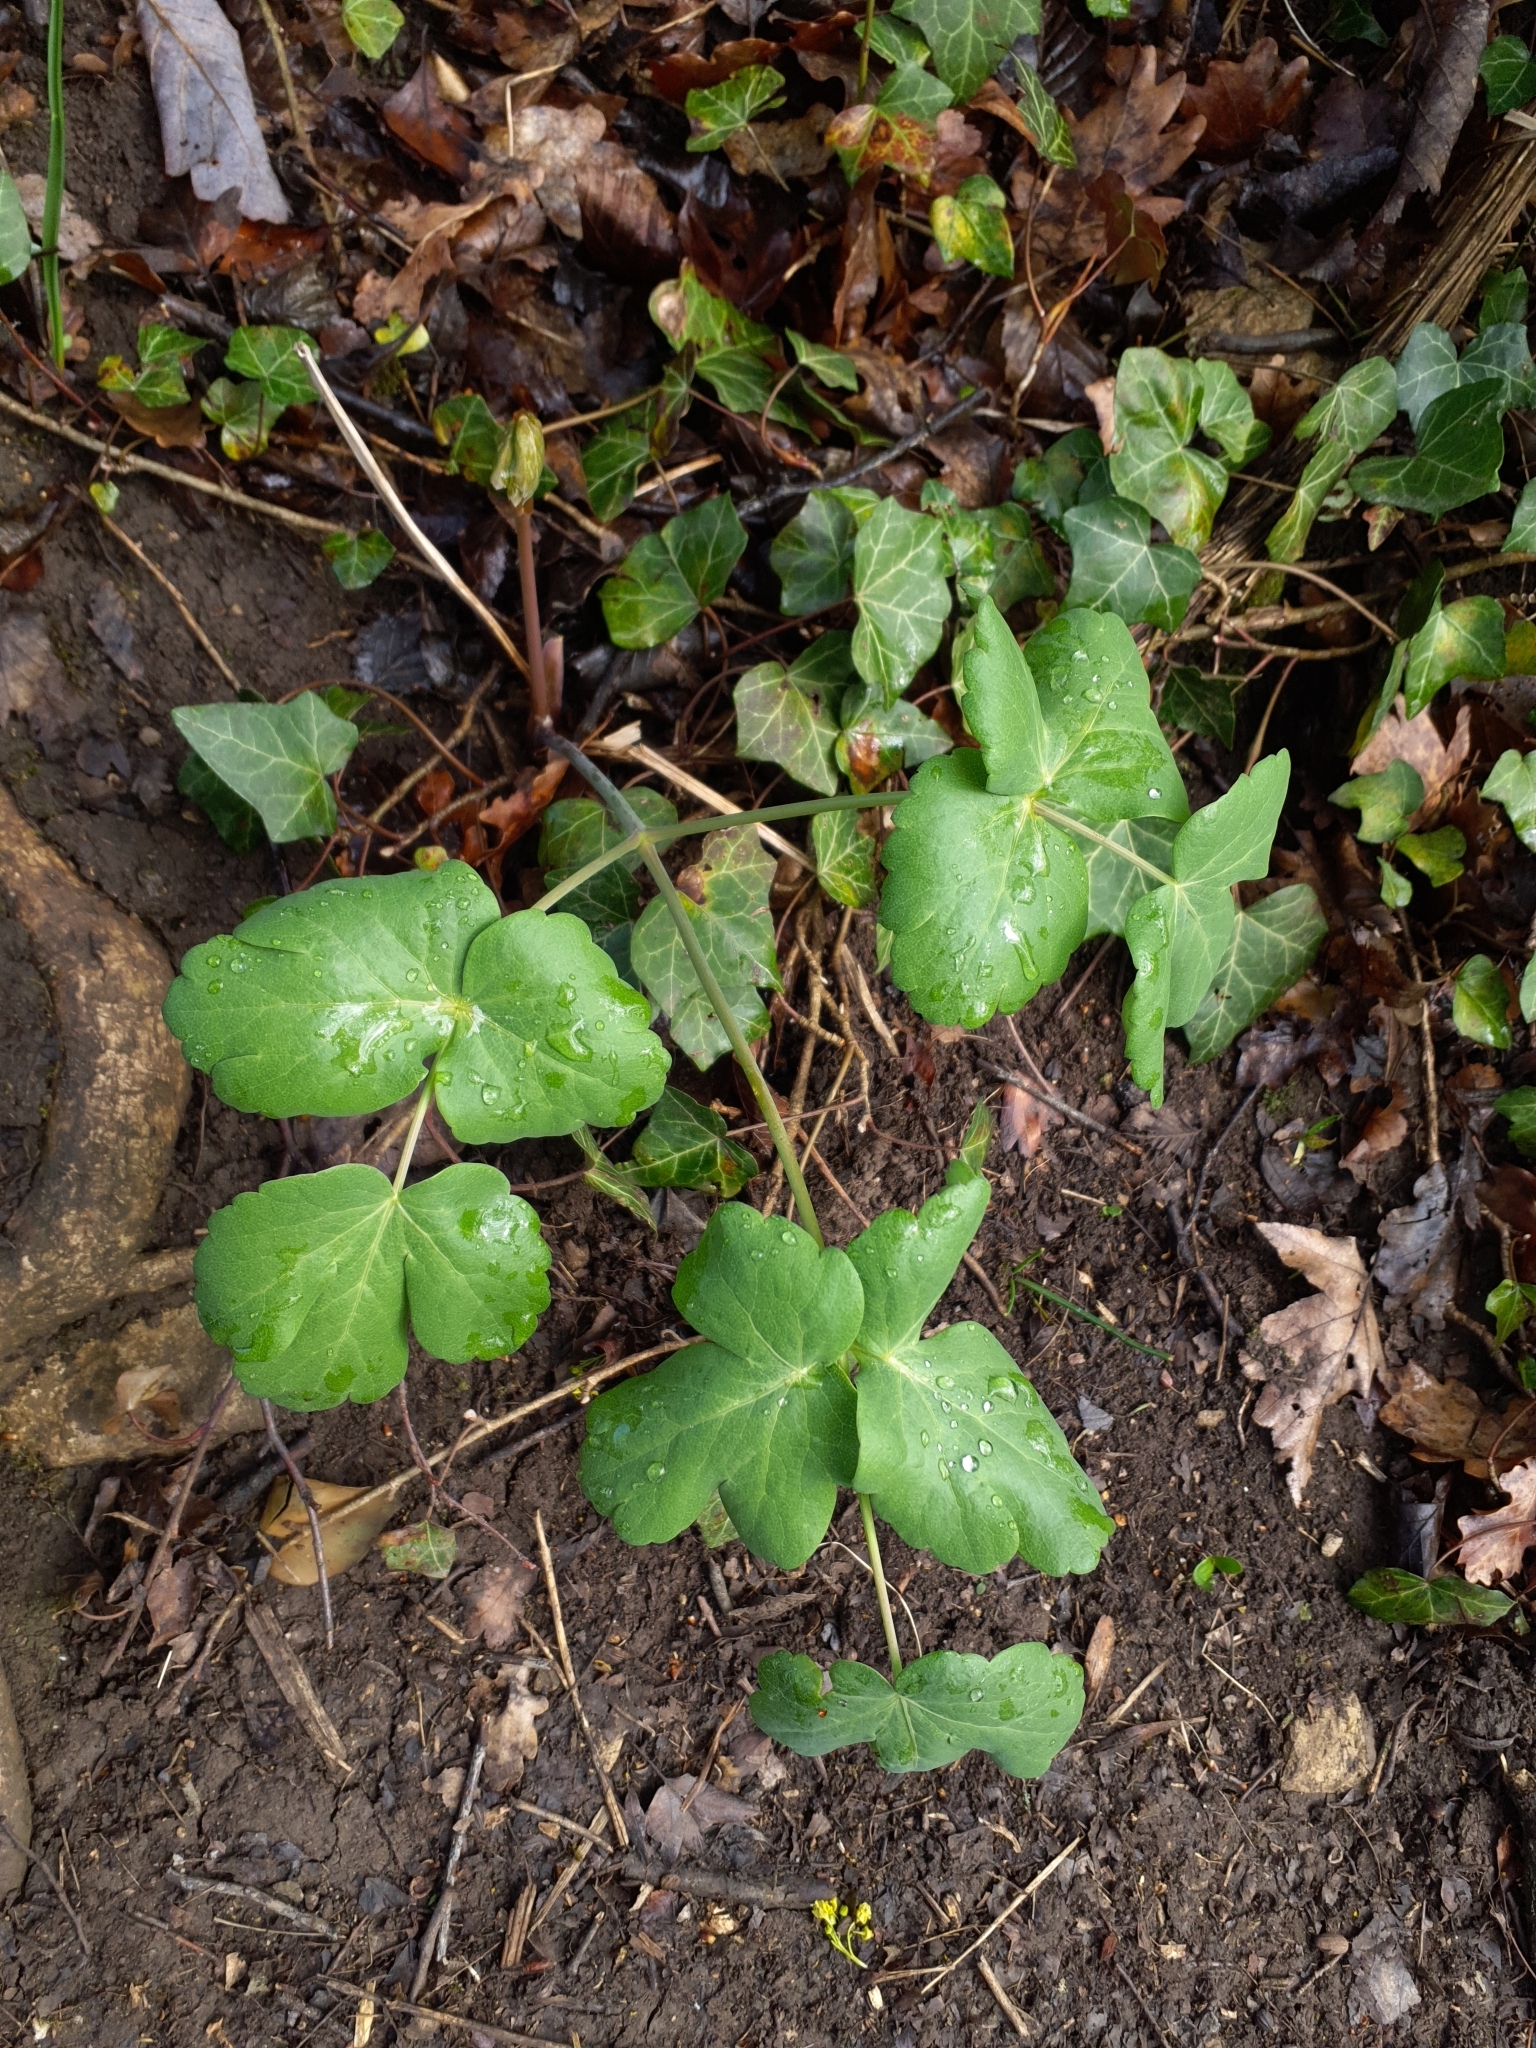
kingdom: Plantae
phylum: Tracheophyta
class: Magnoliopsida
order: Apiales
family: Apiaceae
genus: Laser
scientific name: Laser trilobum
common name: Laser
